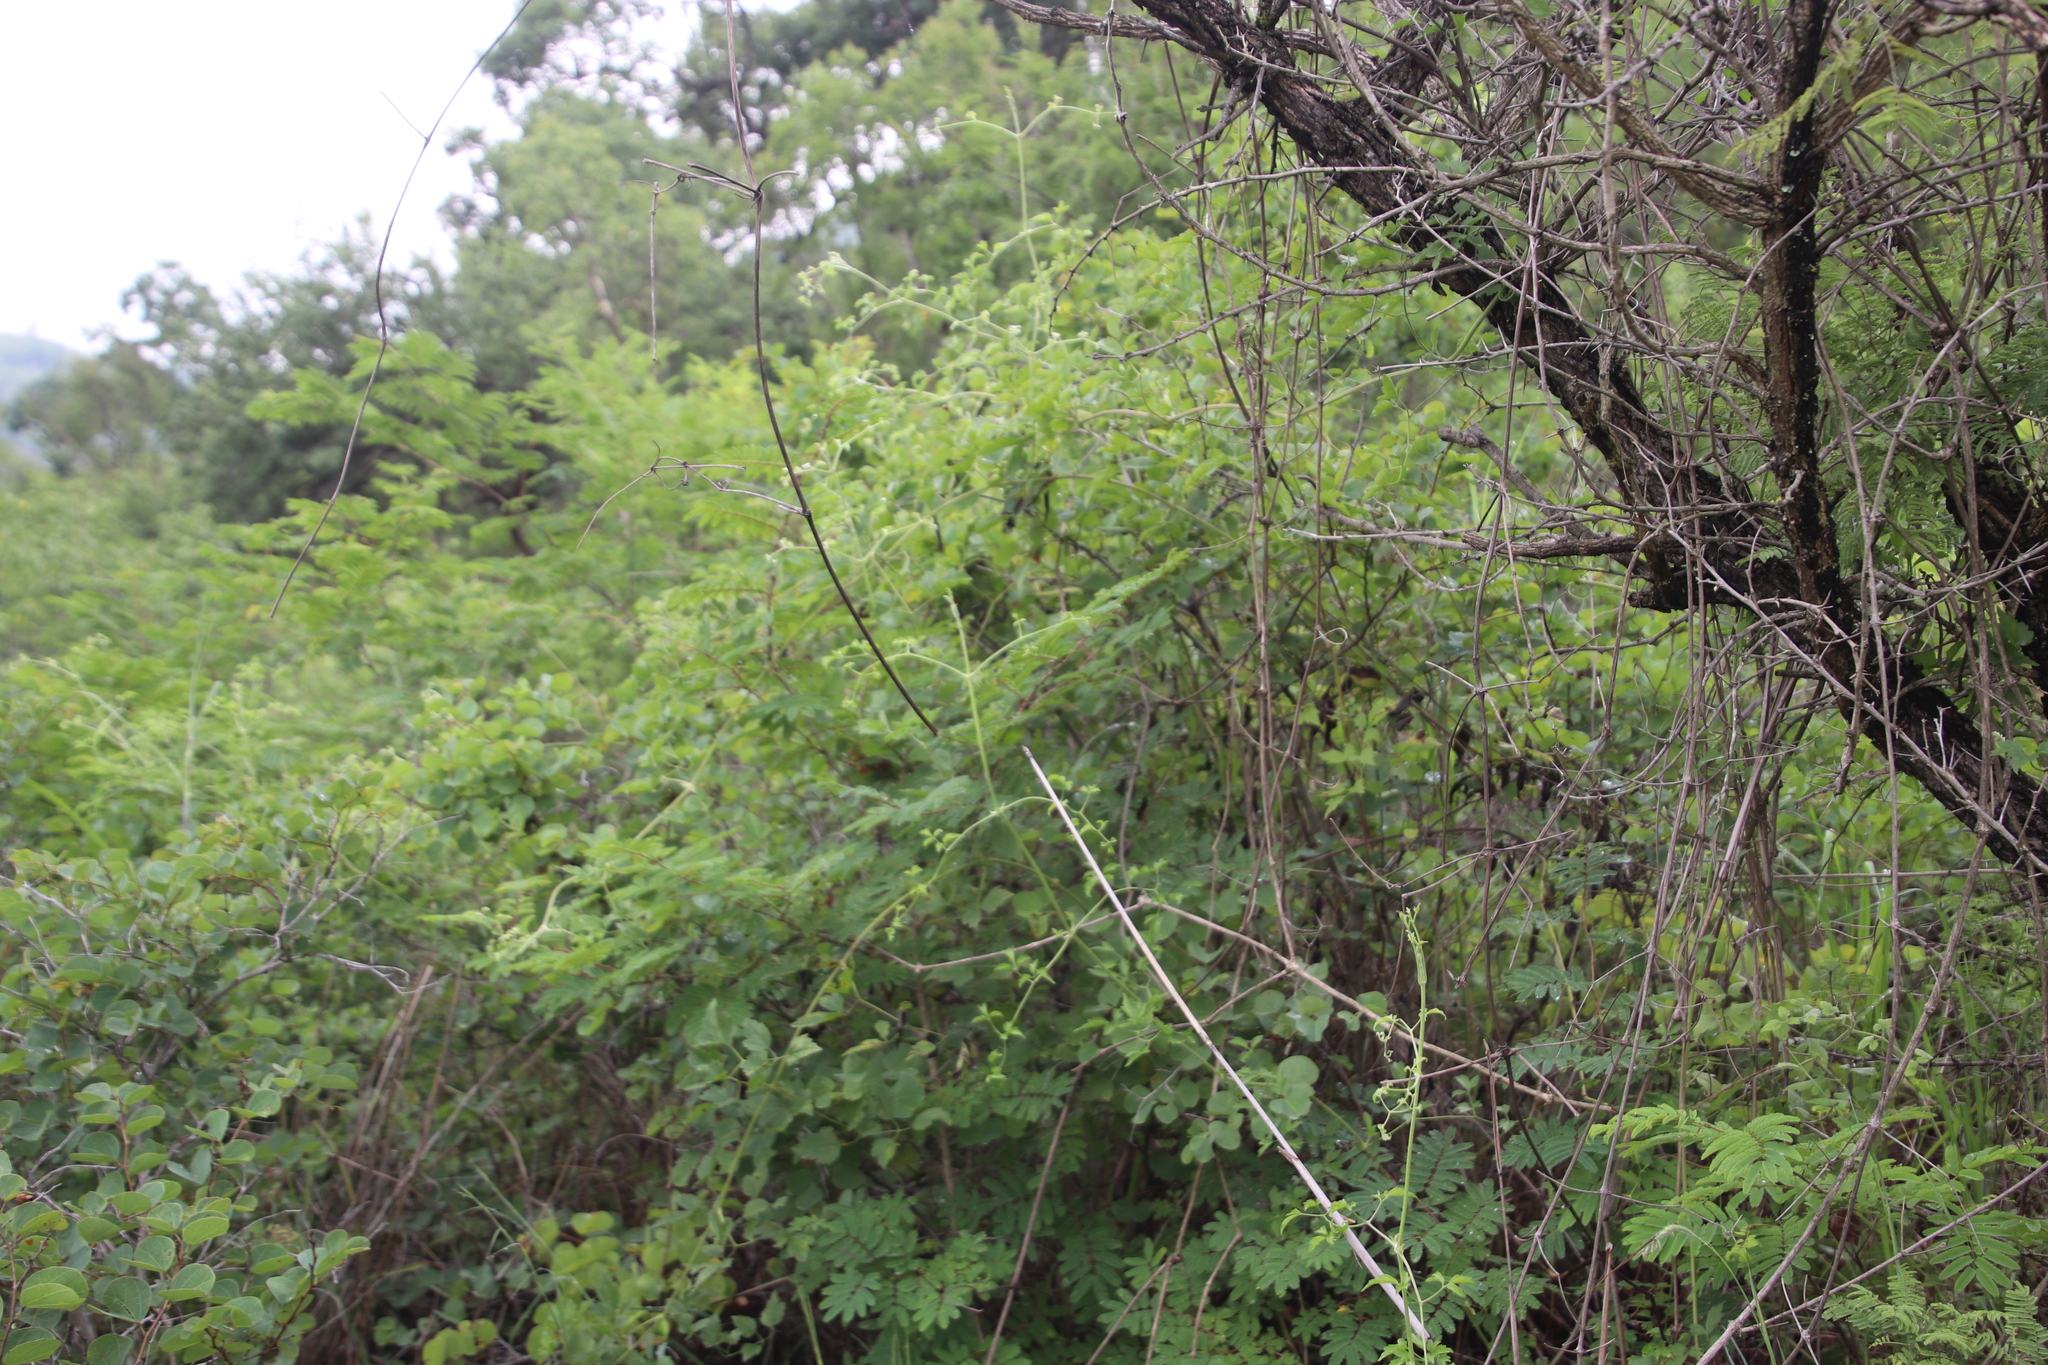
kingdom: Plantae
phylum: Tracheophyta
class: Magnoliopsida
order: Ranunculales
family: Ranunculaceae
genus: Clematis
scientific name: Clematis brachiata
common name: Traveler's-joy
